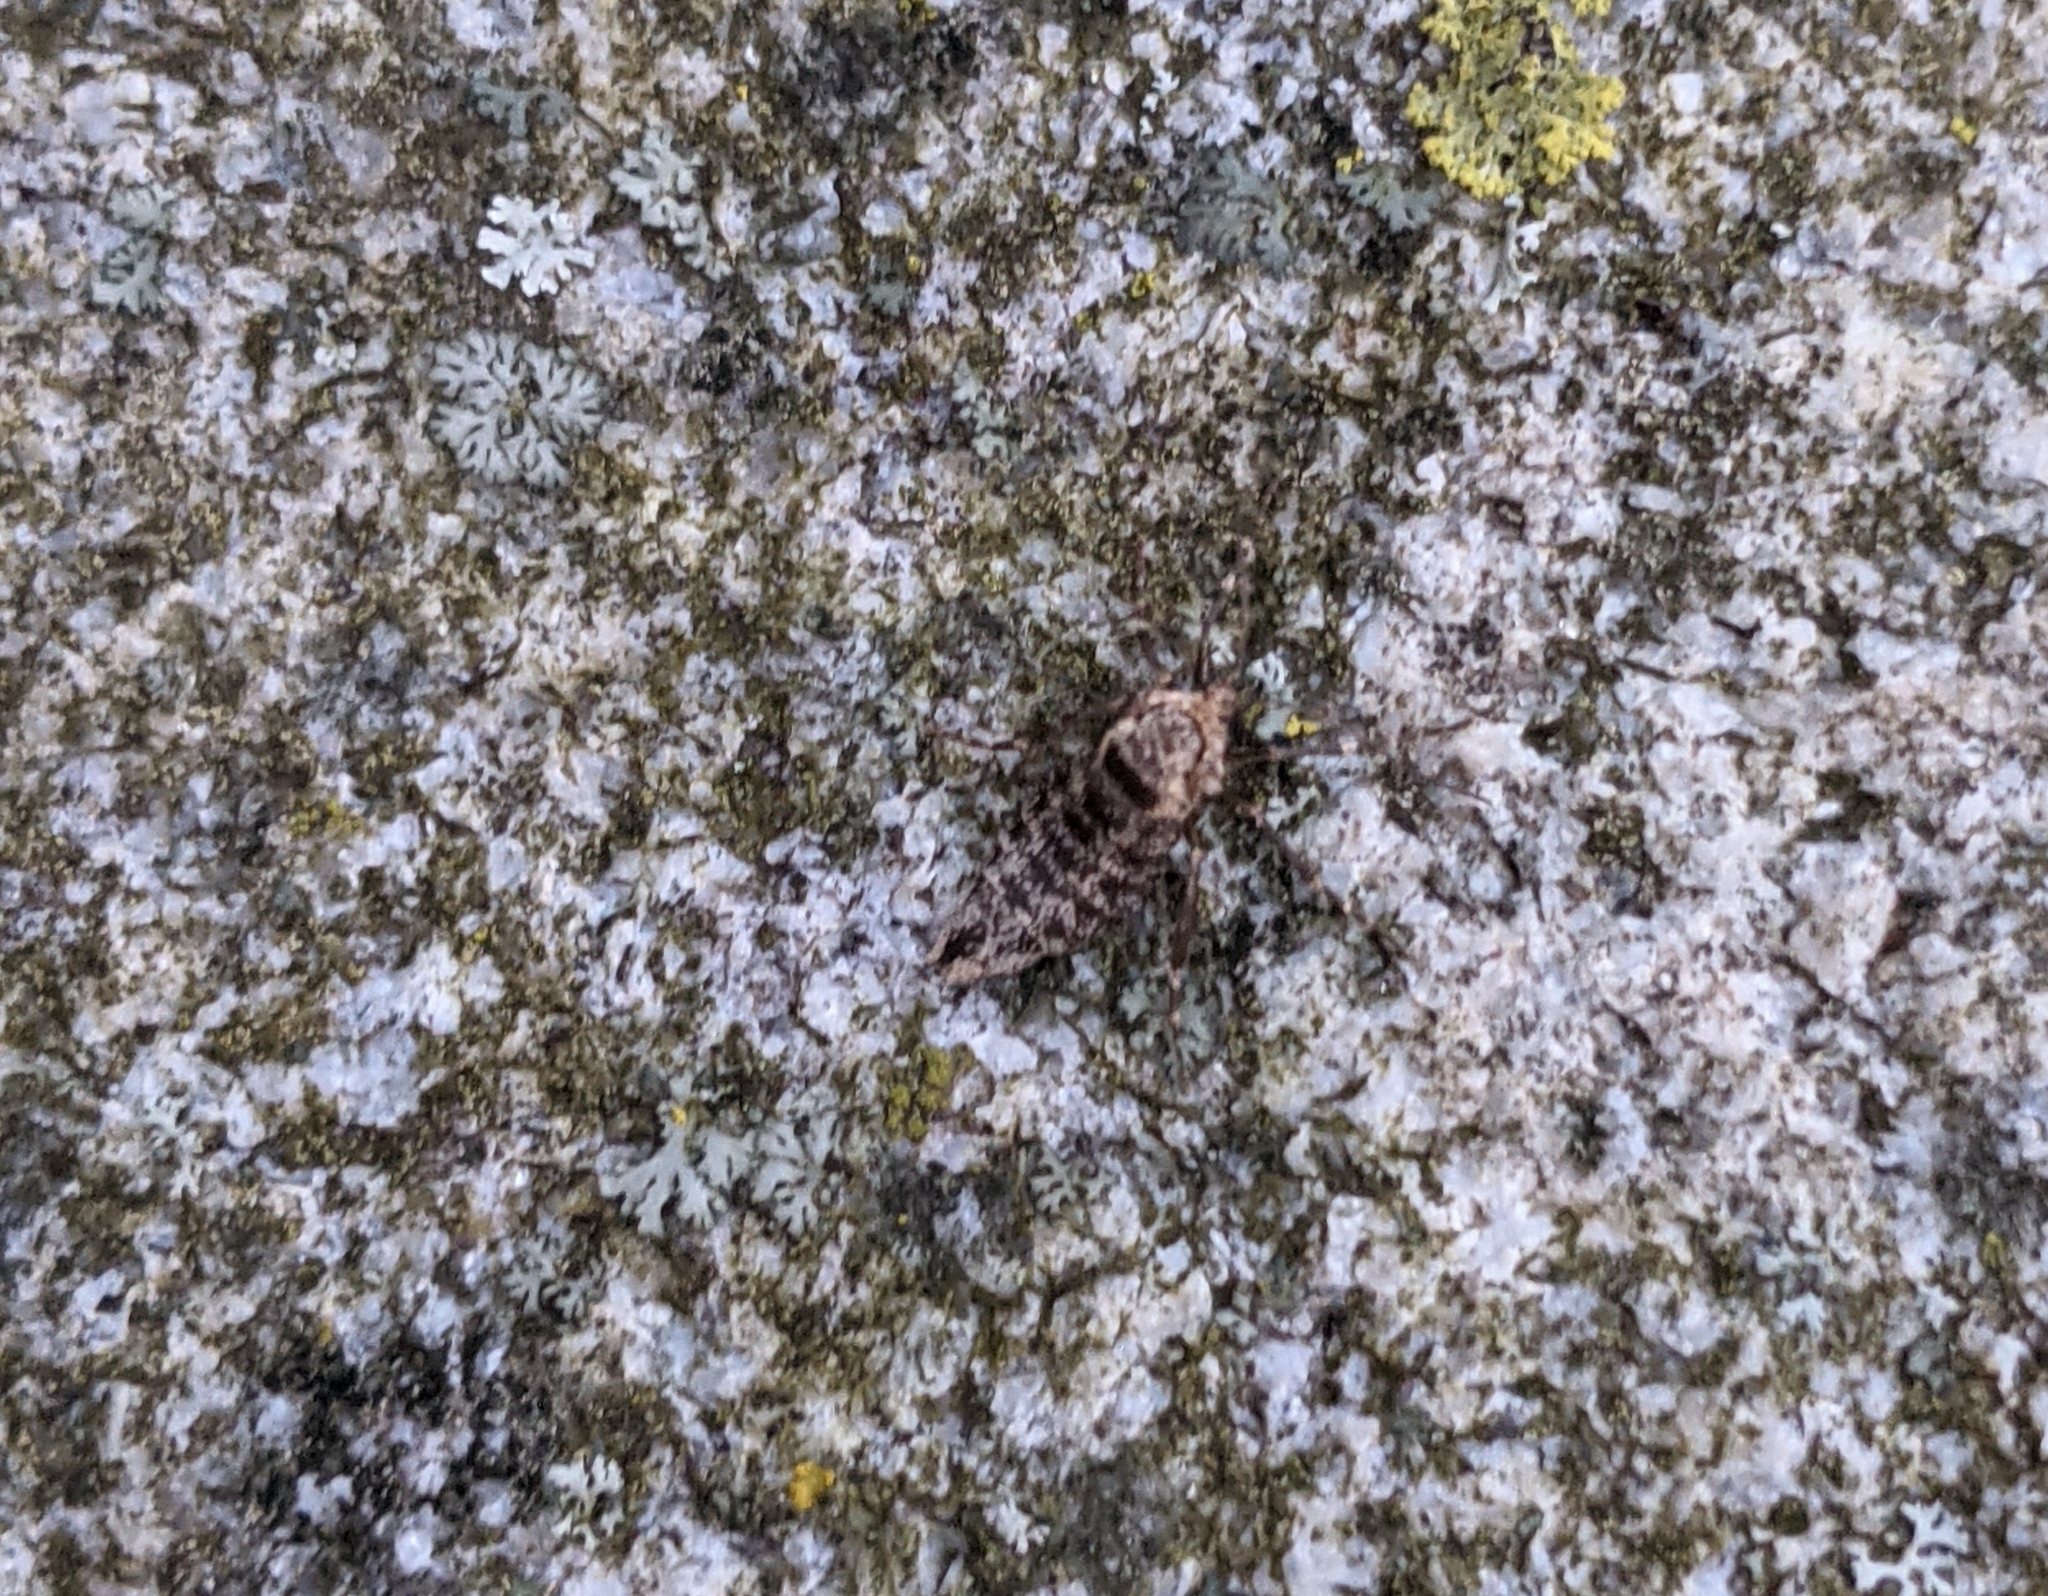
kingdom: Animalia
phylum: Arthropoda
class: Insecta
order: Lepidoptera
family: Geometridae
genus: Alsophila
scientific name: Alsophila pometaria
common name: Fall cankerworm
